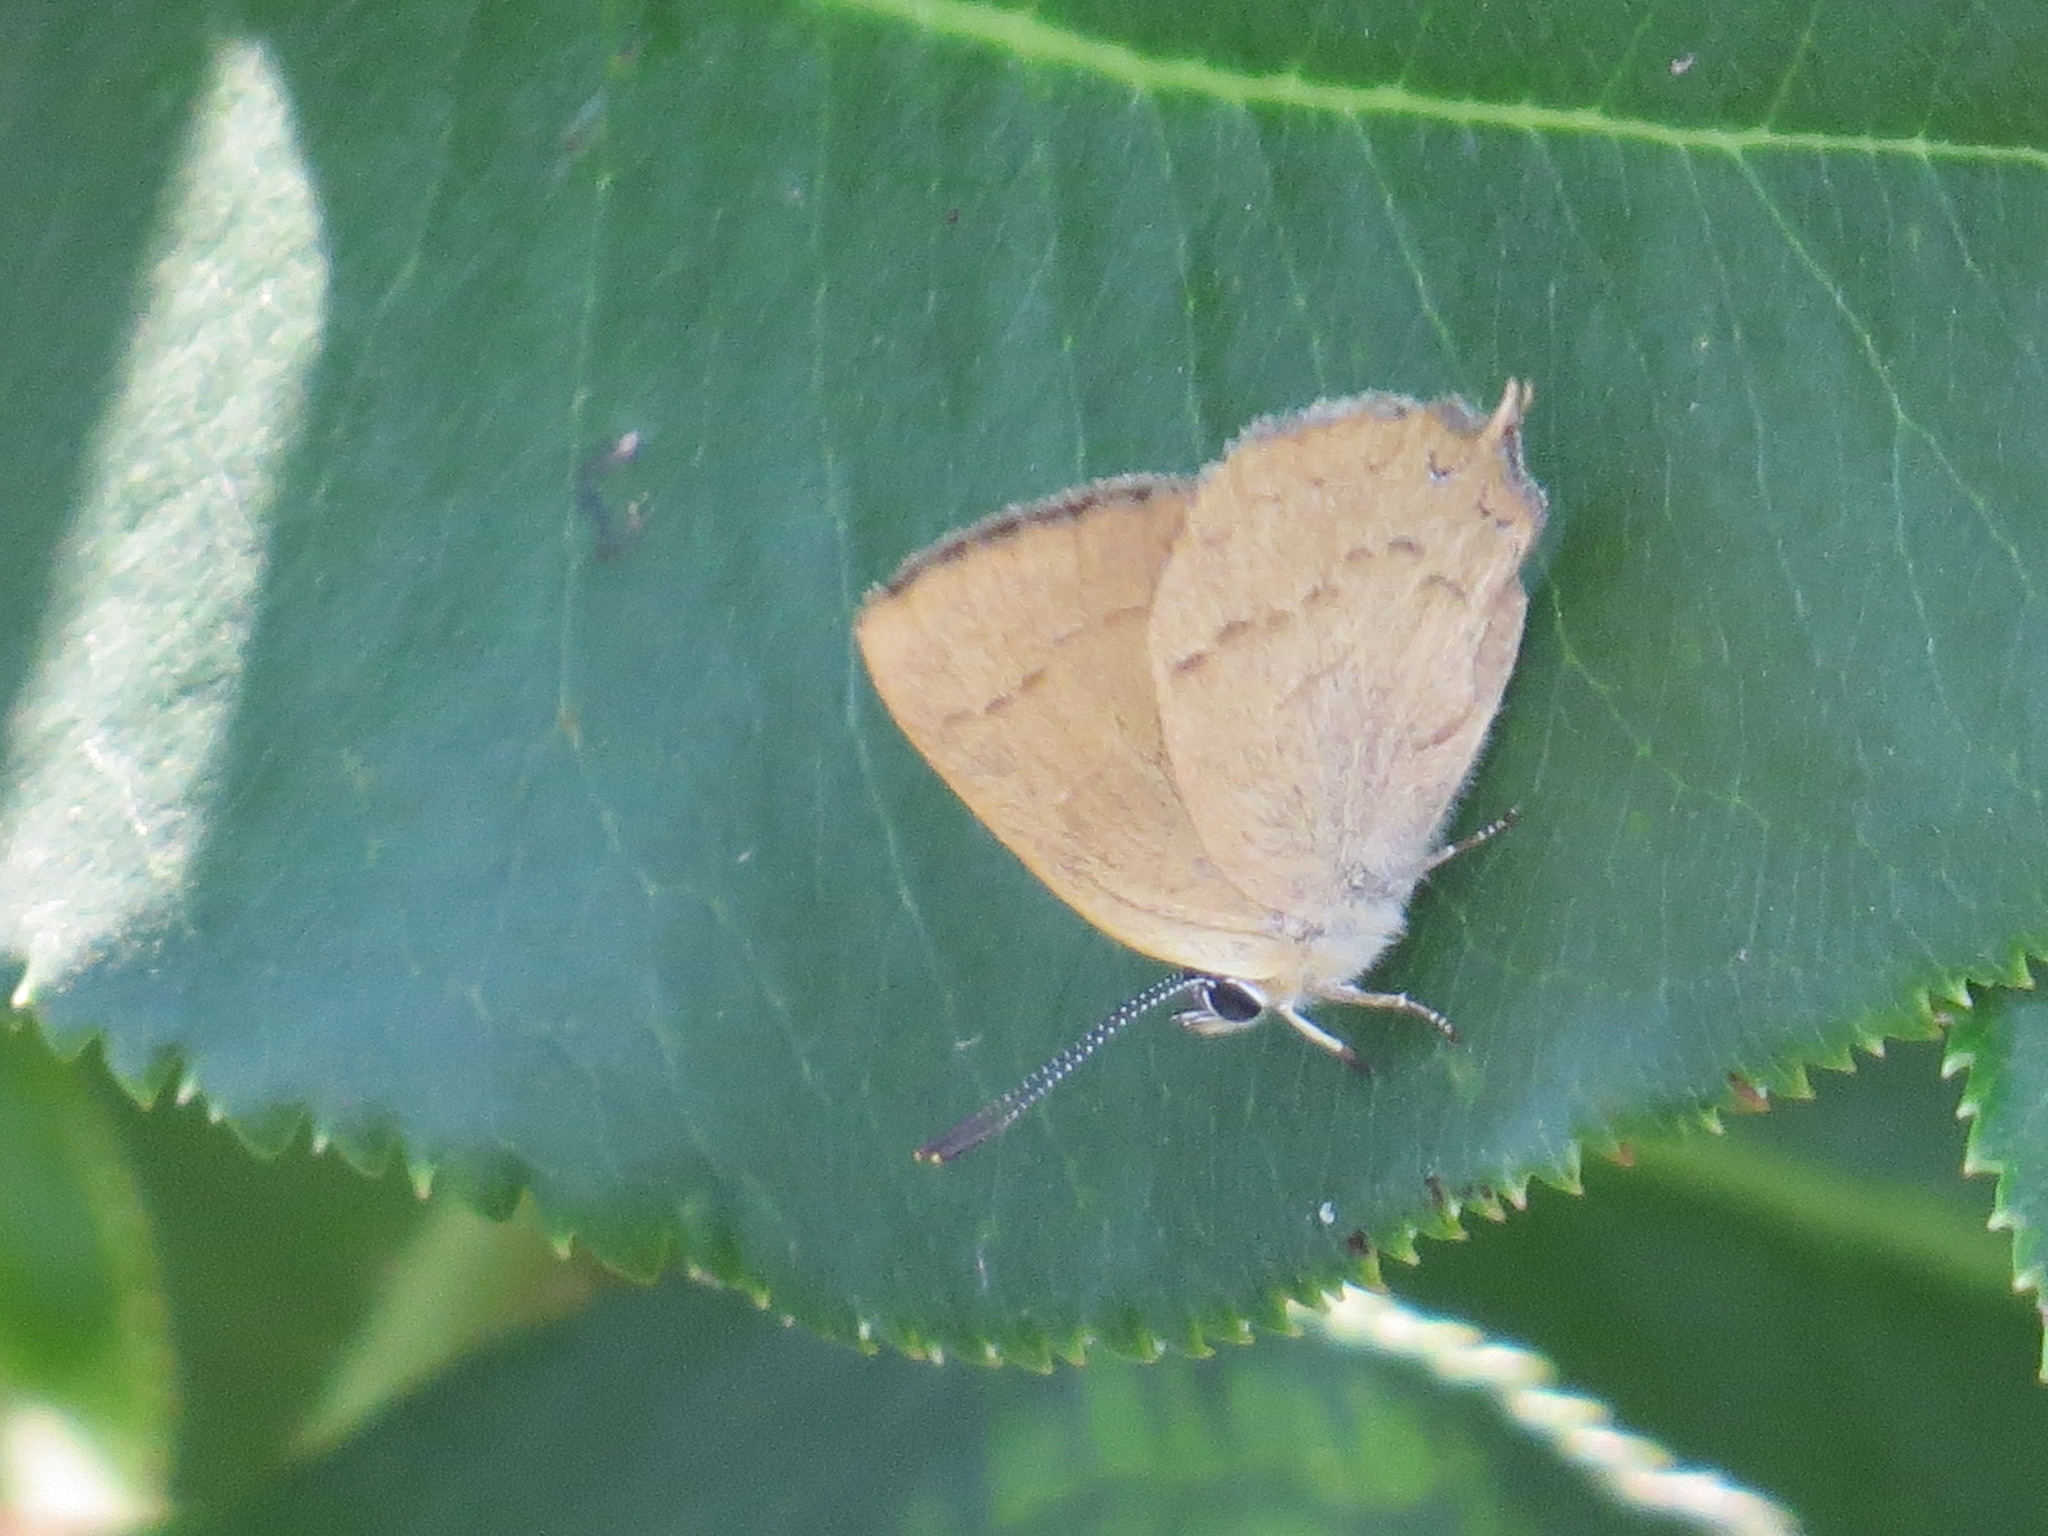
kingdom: Animalia
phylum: Arthropoda
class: Insecta
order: Lepidoptera
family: Lycaenidae
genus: Habrodais
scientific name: Habrodais grunus
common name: Golden hairstreak
